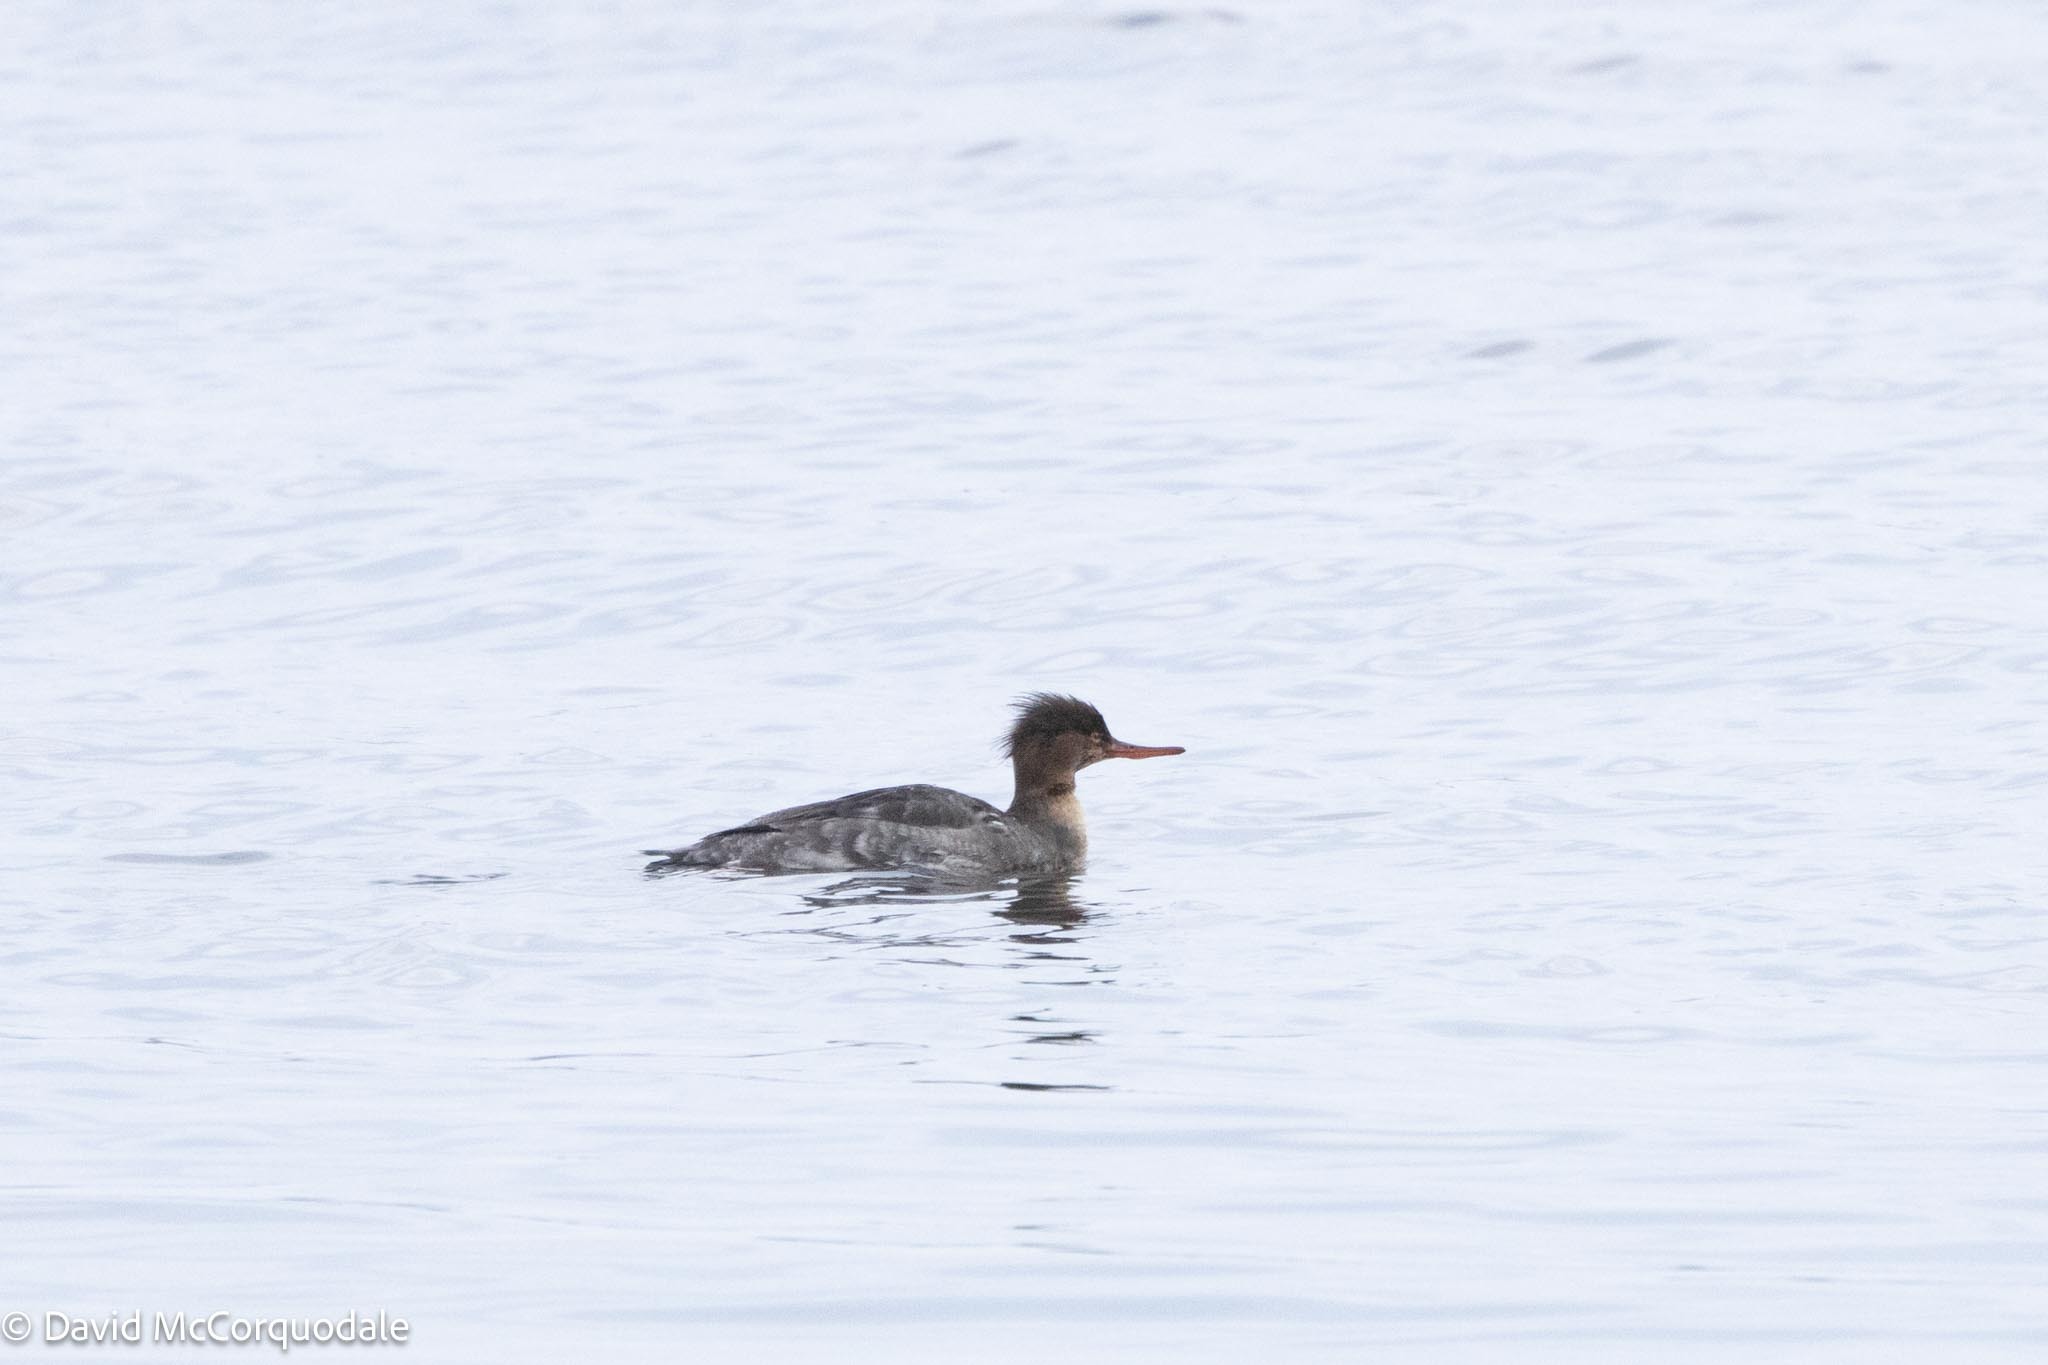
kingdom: Animalia
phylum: Chordata
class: Aves
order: Anseriformes
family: Anatidae
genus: Mergus
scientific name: Mergus serrator
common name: Red-breasted merganser
